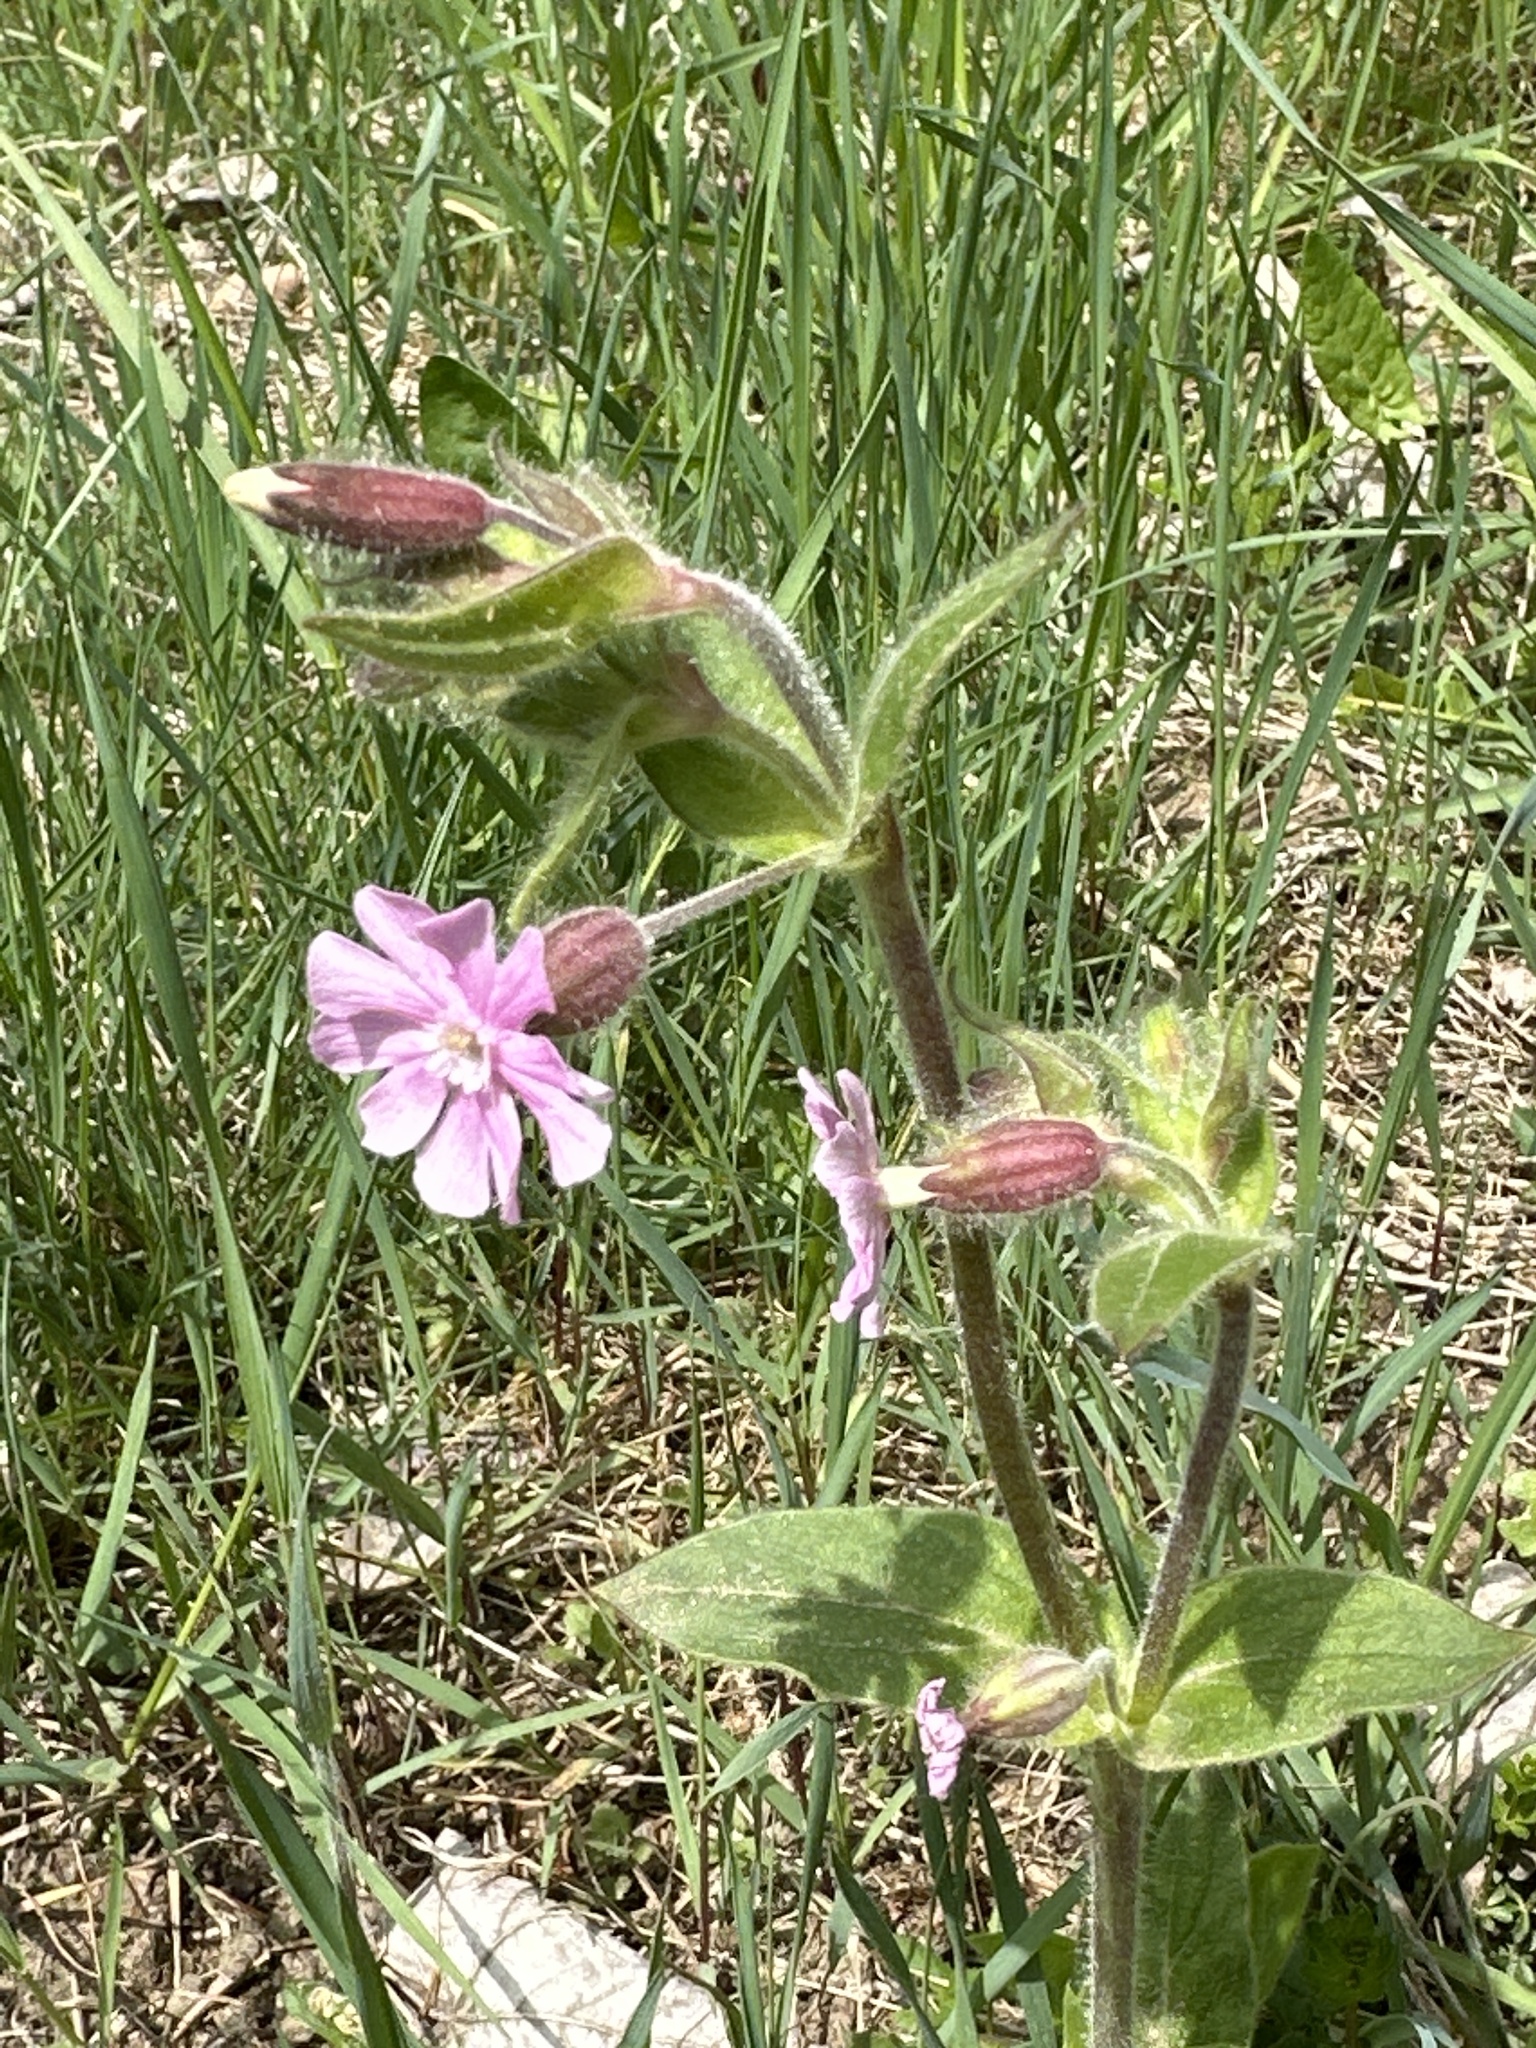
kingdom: Plantae
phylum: Tracheophyta
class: Magnoliopsida
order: Caryophyllales
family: Caryophyllaceae
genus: Silene
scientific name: Silene dioica
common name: Red campion
